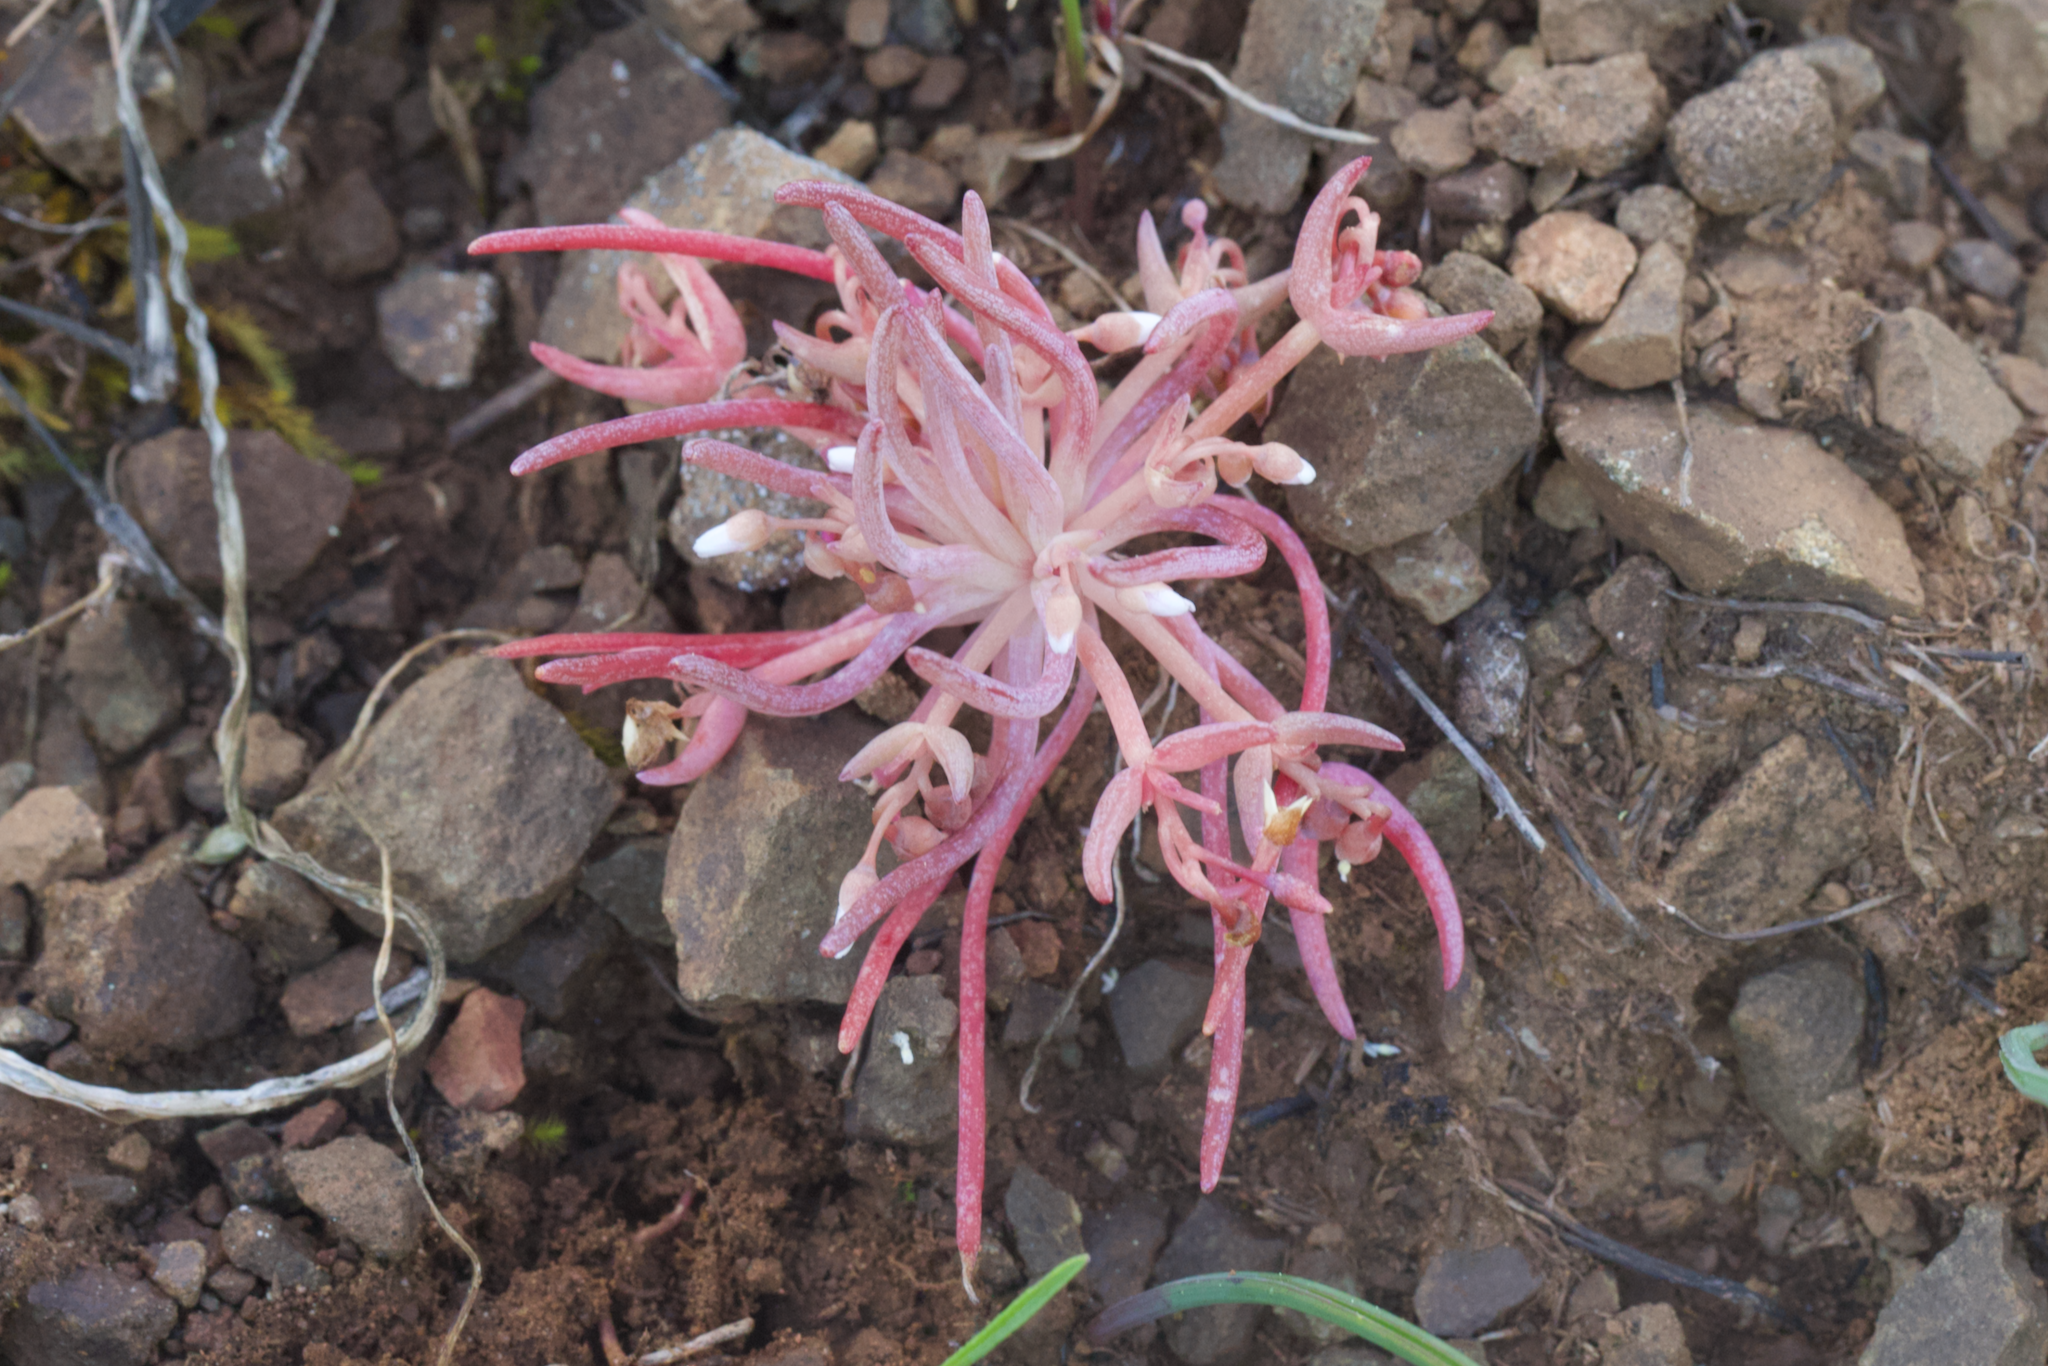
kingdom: Plantae
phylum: Tracheophyta
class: Magnoliopsida
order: Caryophyllales
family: Montiaceae
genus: Claytonia
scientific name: Claytonia exigua
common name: Pale spring beauty
